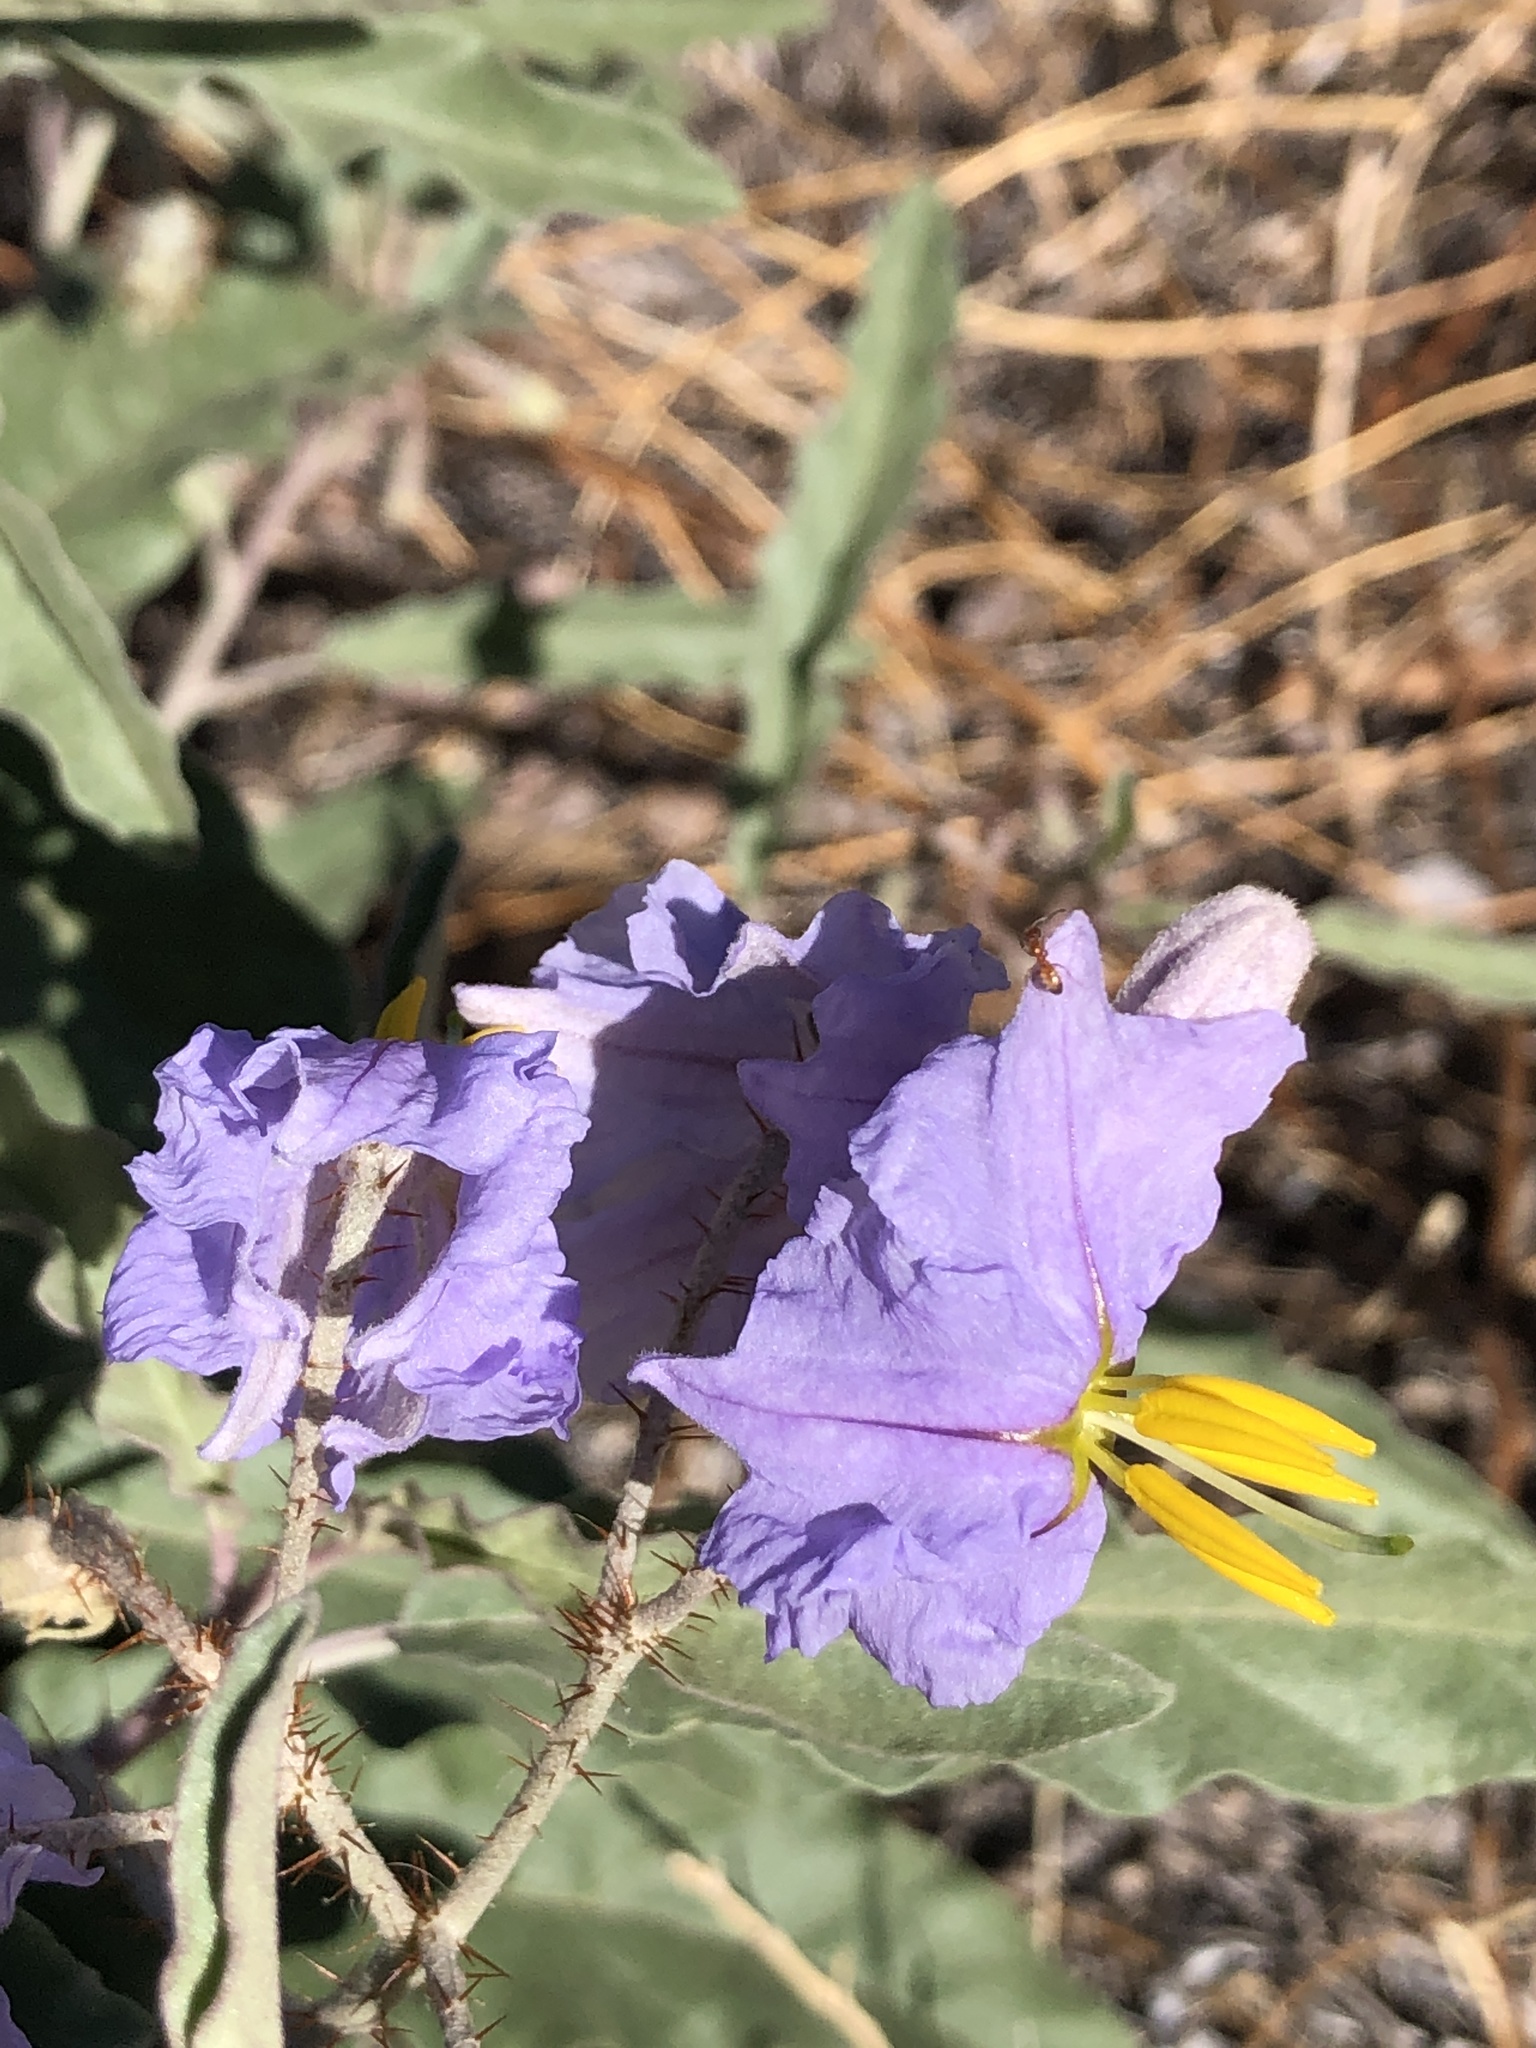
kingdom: Plantae
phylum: Tracheophyta
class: Magnoliopsida
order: Solanales
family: Solanaceae
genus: Solanum
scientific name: Solanum elaeagnifolium
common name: Silverleaf nightshade
